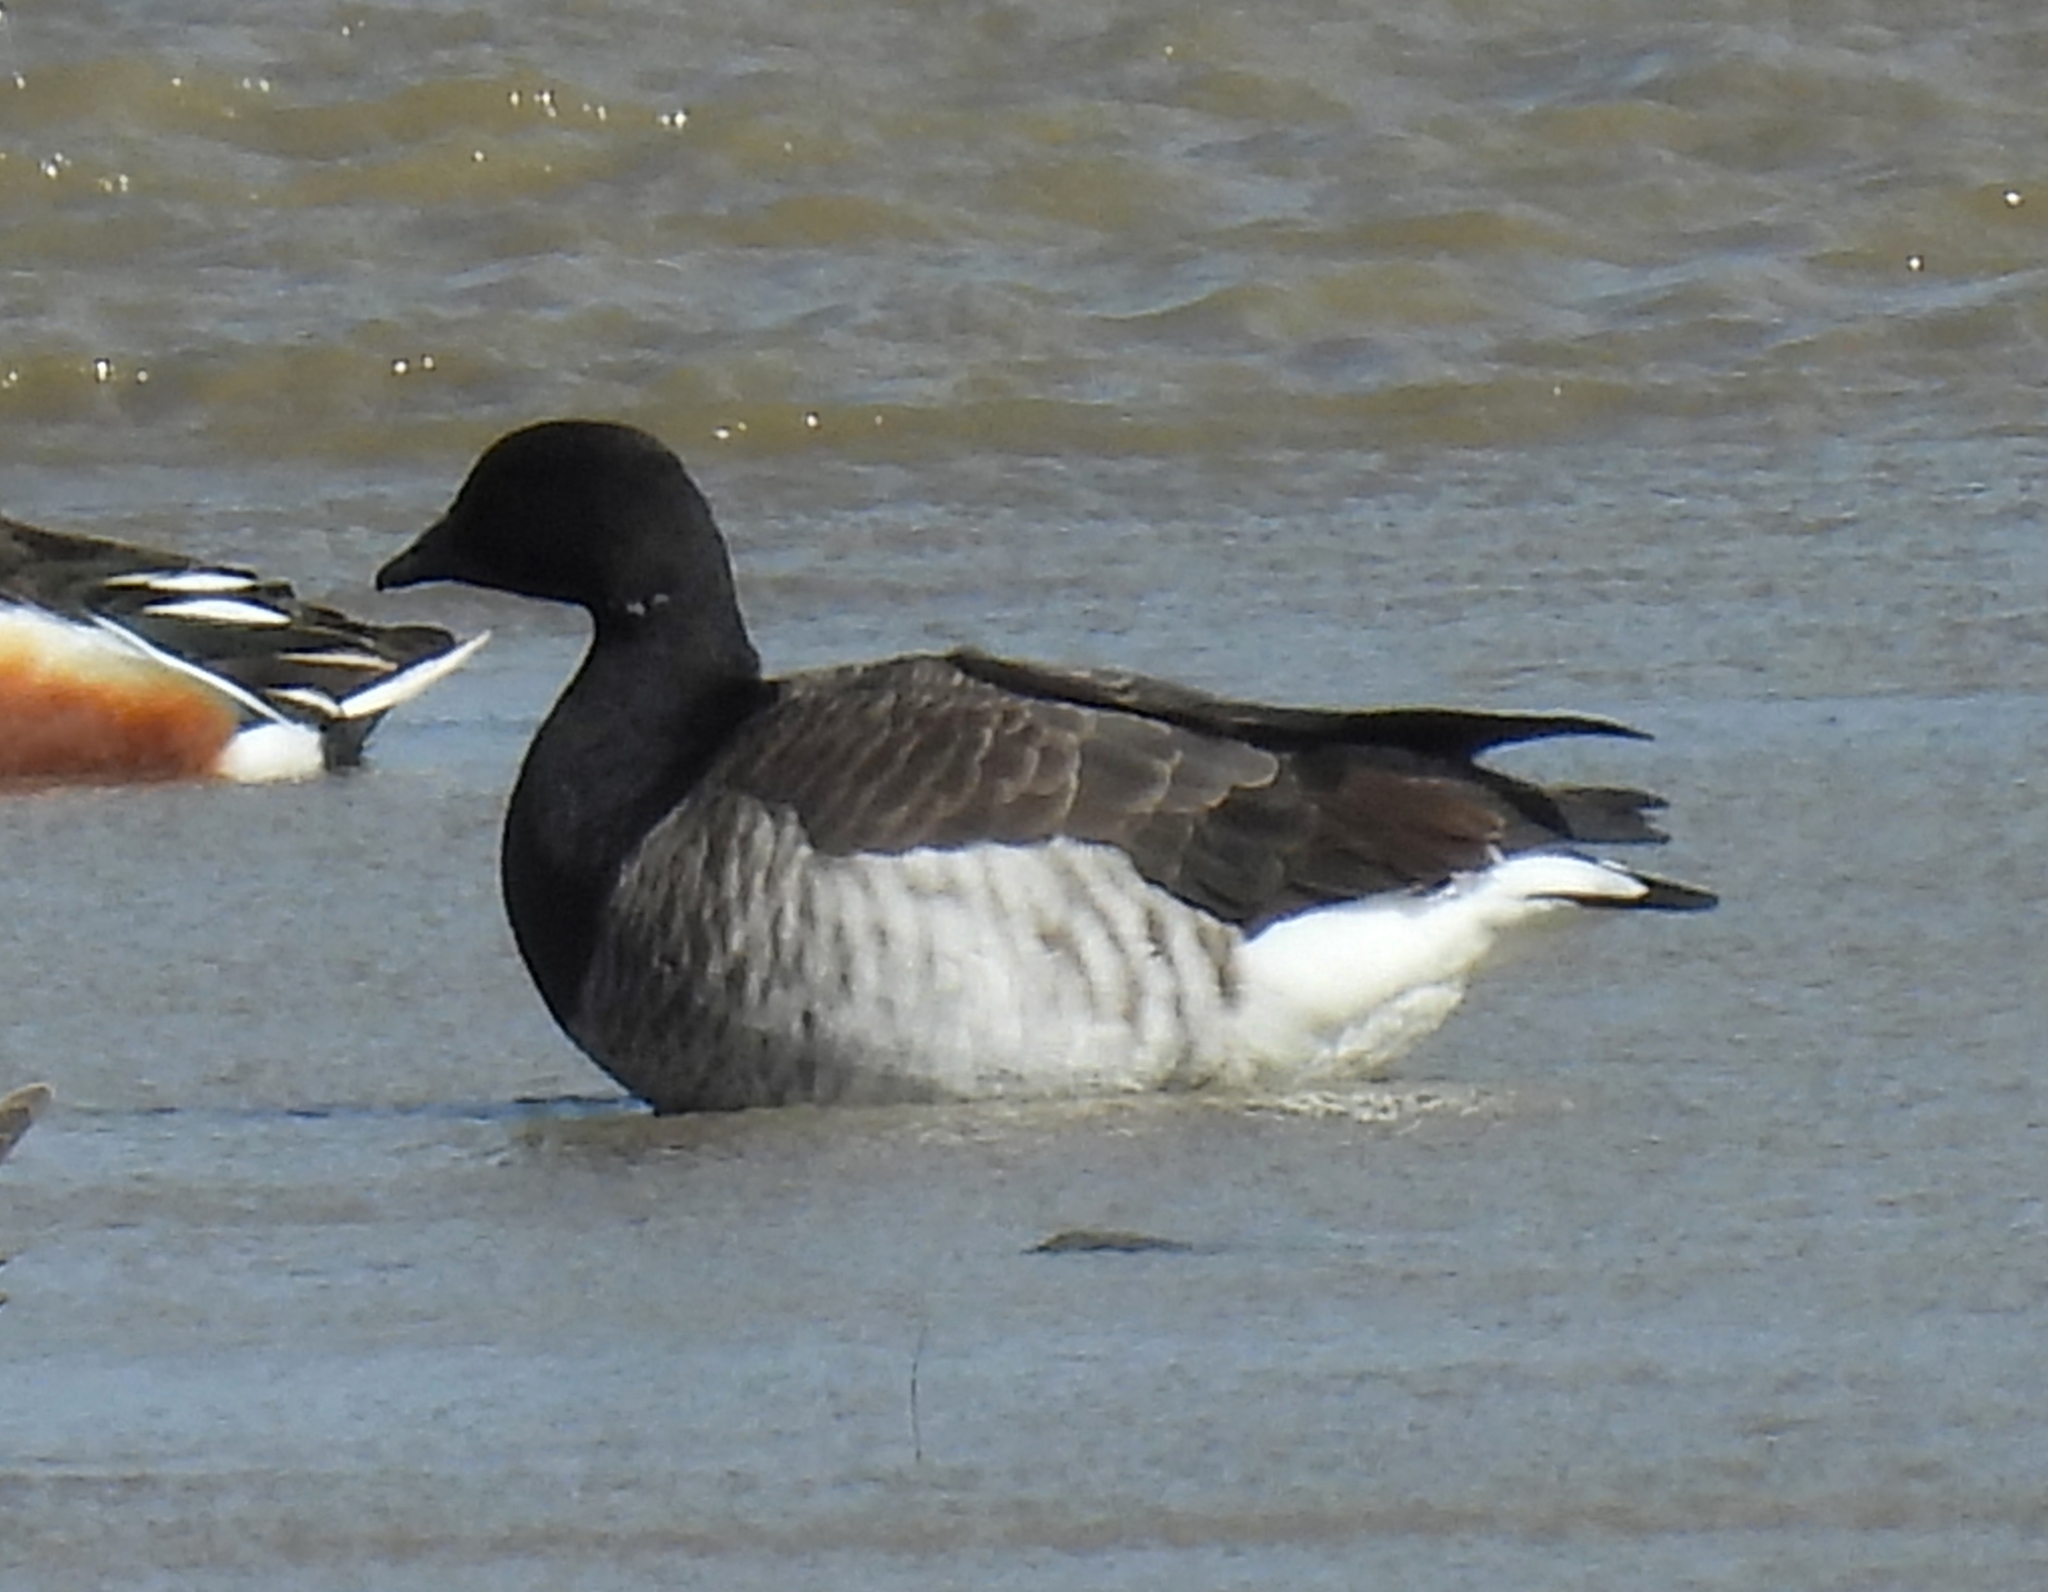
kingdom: Animalia
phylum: Chordata
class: Aves
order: Anseriformes
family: Anatidae
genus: Branta
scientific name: Branta bernicla
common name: Brant goose
